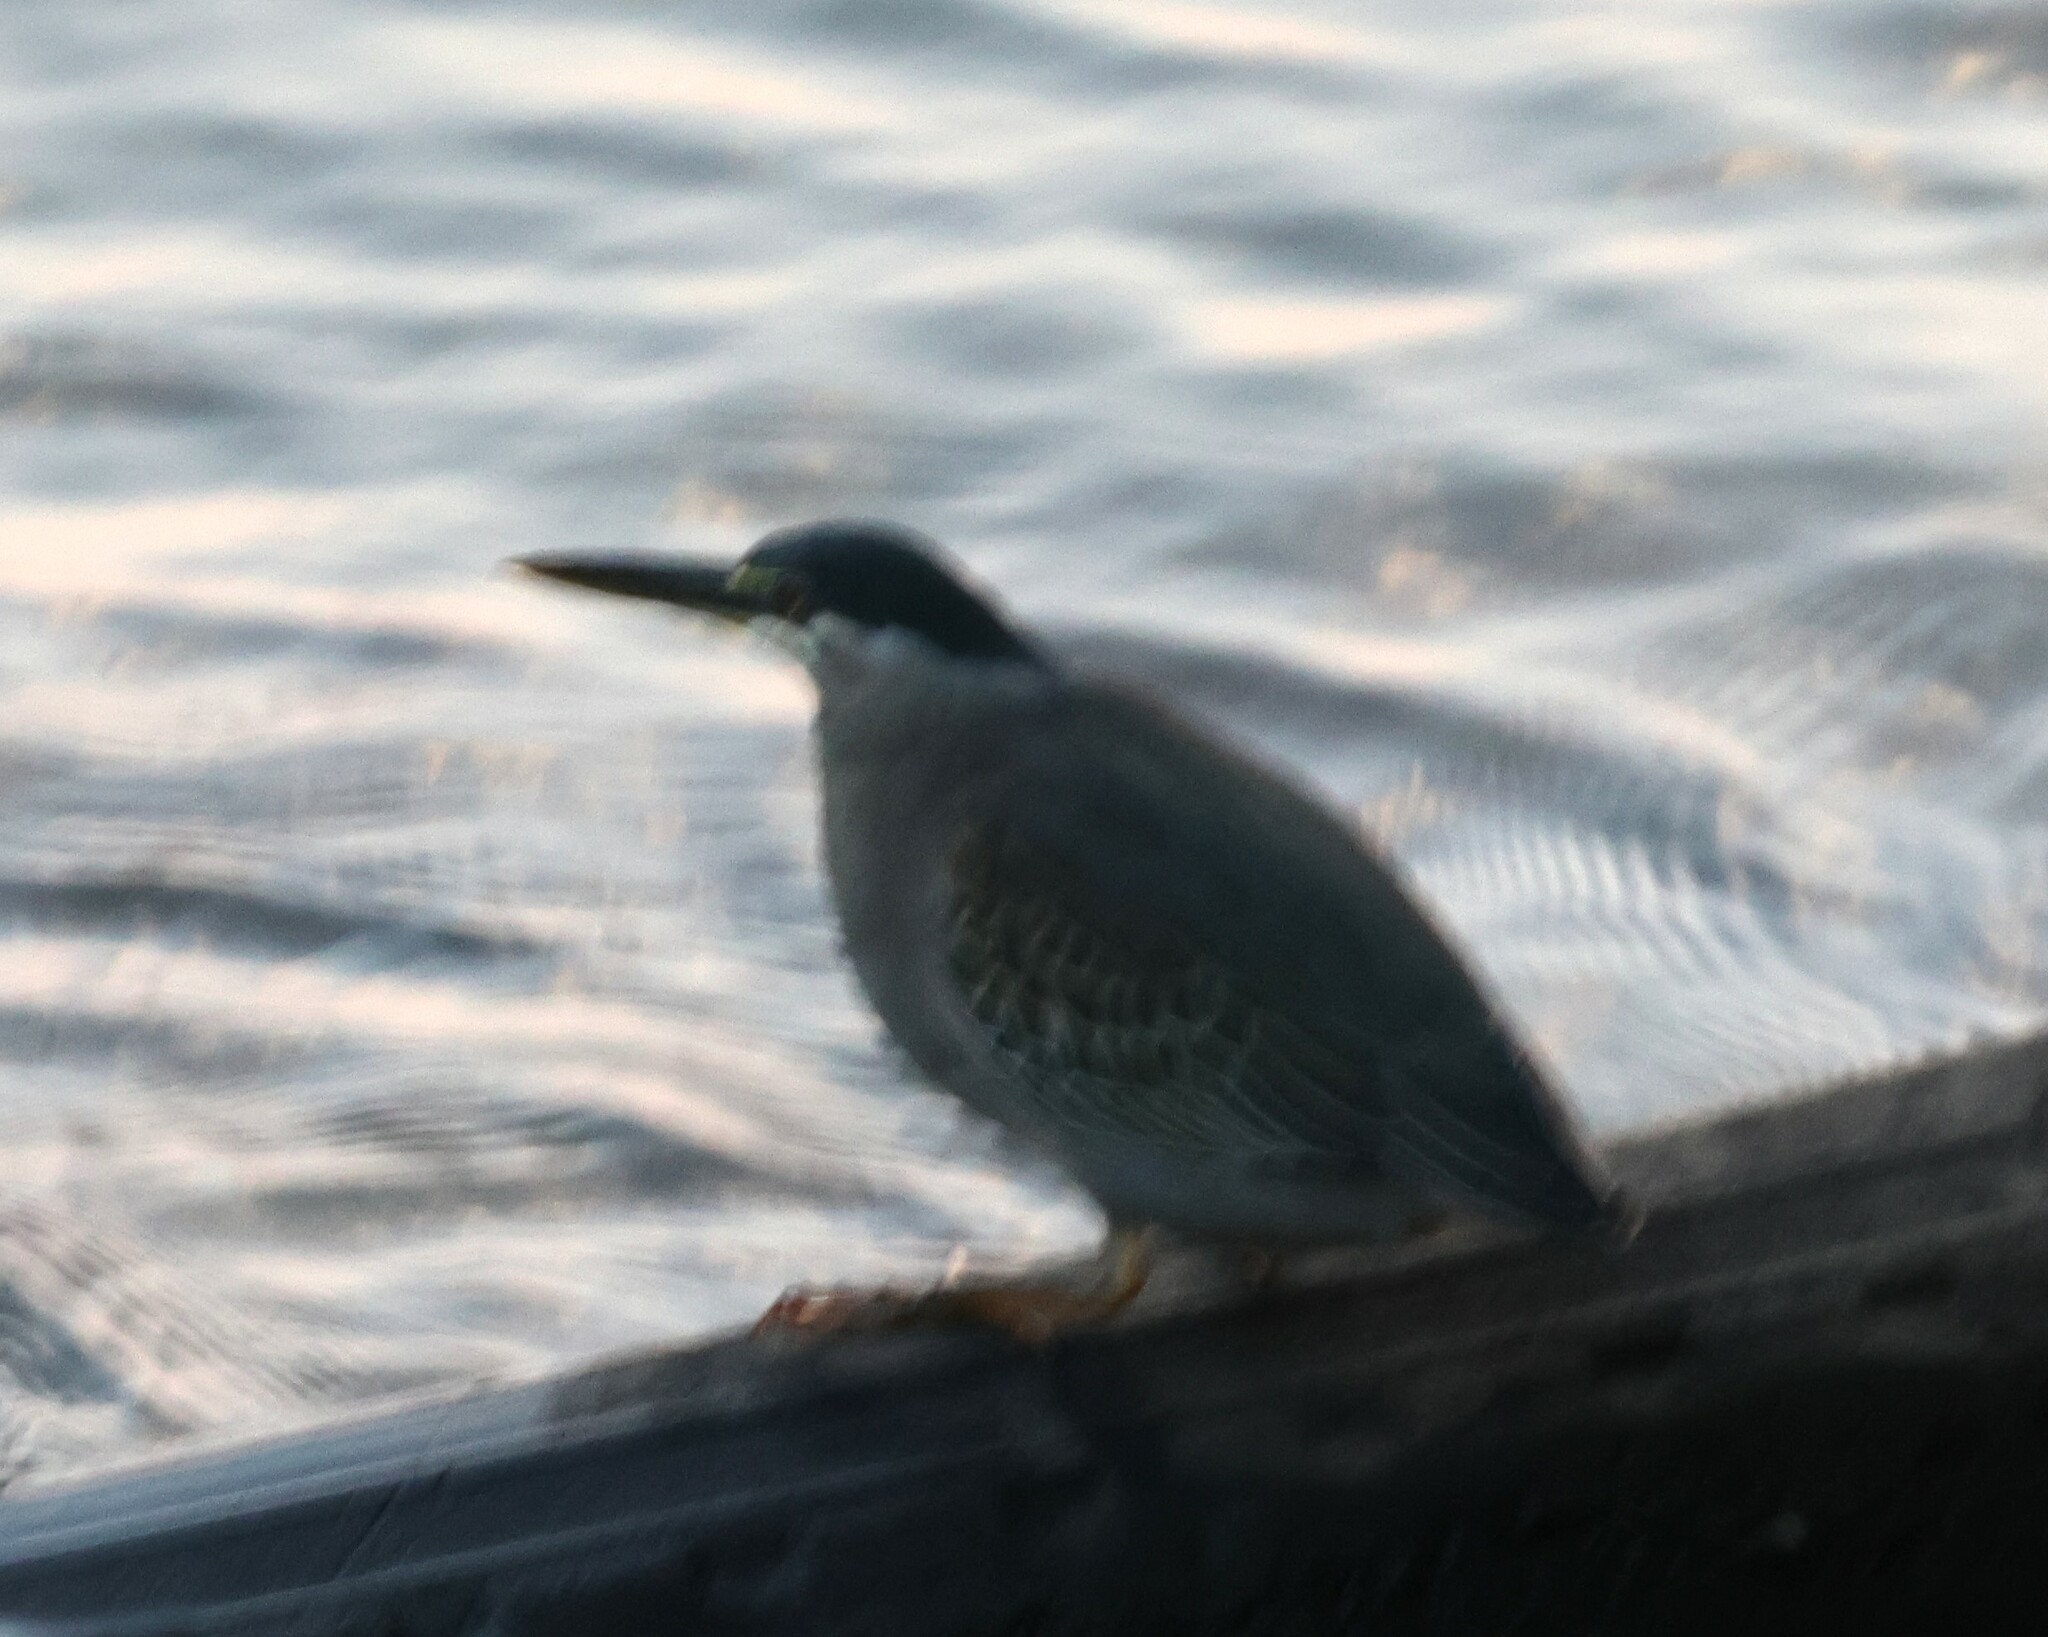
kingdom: Animalia
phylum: Chordata
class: Aves
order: Pelecaniformes
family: Ardeidae
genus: Butorides
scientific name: Butorides striata
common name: Striated heron
